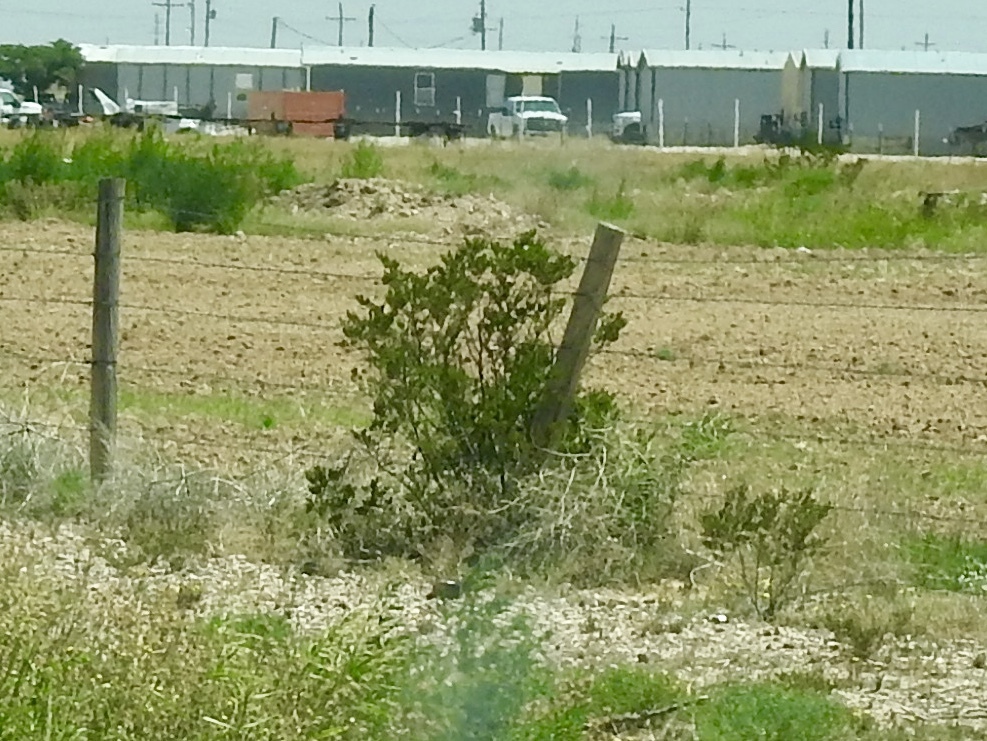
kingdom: Plantae
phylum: Tracheophyta
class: Magnoliopsida
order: Zygophyllales
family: Zygophyllaceae
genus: Larrea
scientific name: Larrea tridentata
